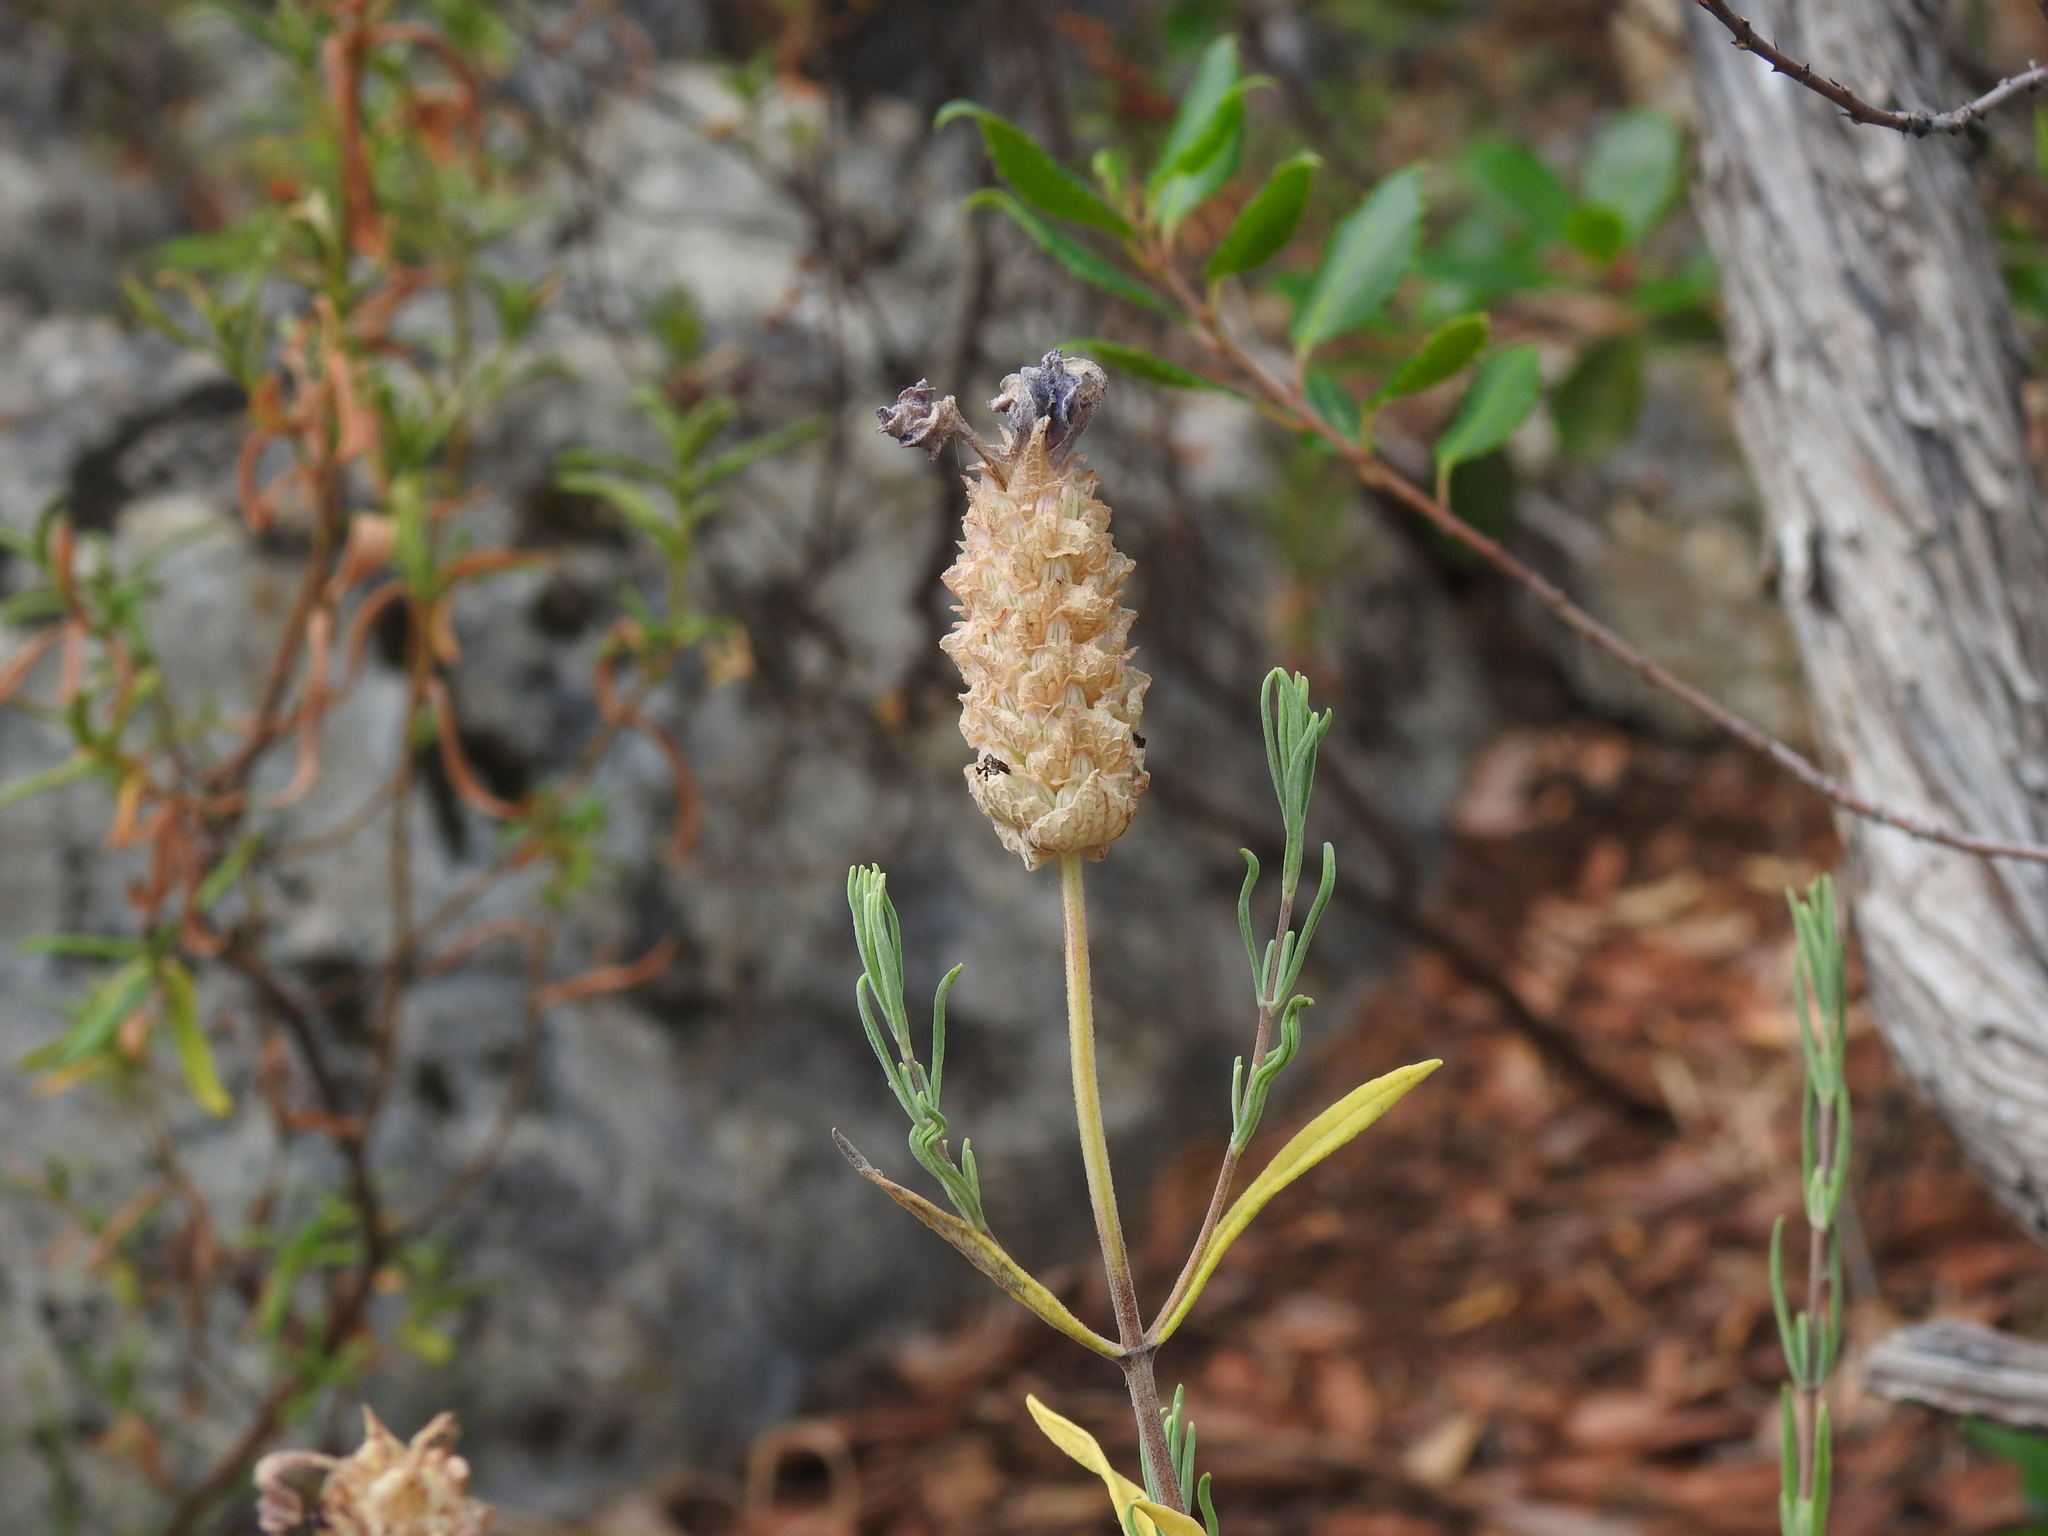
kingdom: Plantae
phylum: Tracheophyta
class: Magnoliopsida
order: Lamiales
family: Lamiaceae
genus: Lavandula
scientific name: Lavandula stoechas
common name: French lavender
